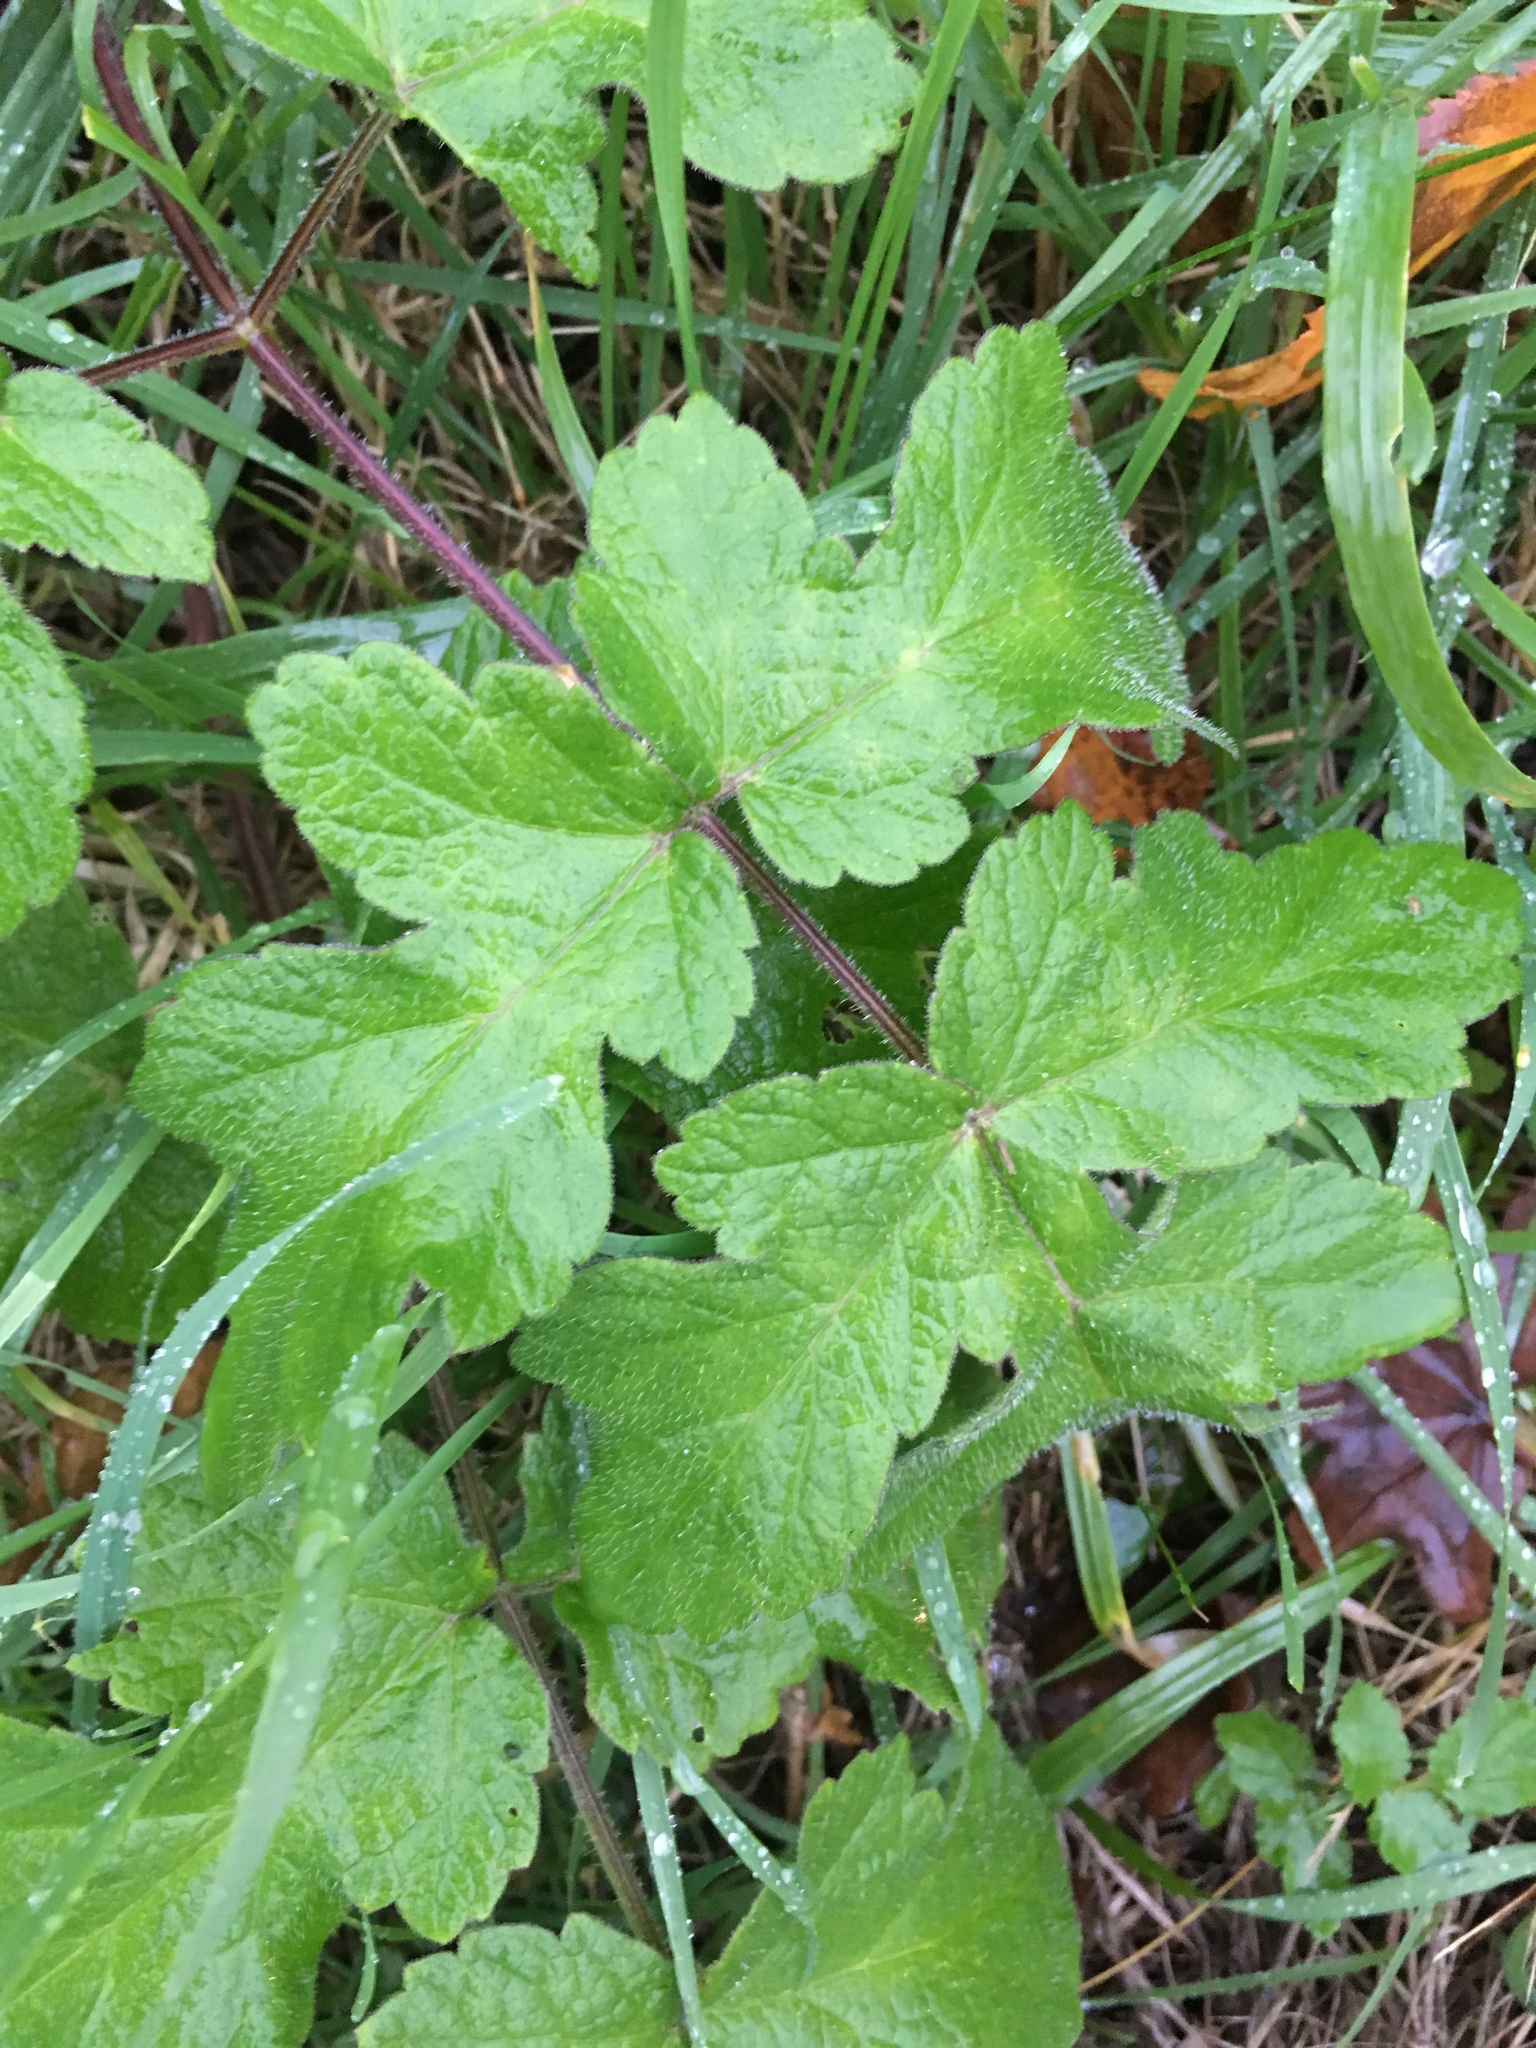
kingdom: Plantae
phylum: Tracheophyta
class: Magnoliopsida
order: Apiales
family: Apiaceae
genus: Heracleum
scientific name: Heracleum sphondylium
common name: Hogweed
